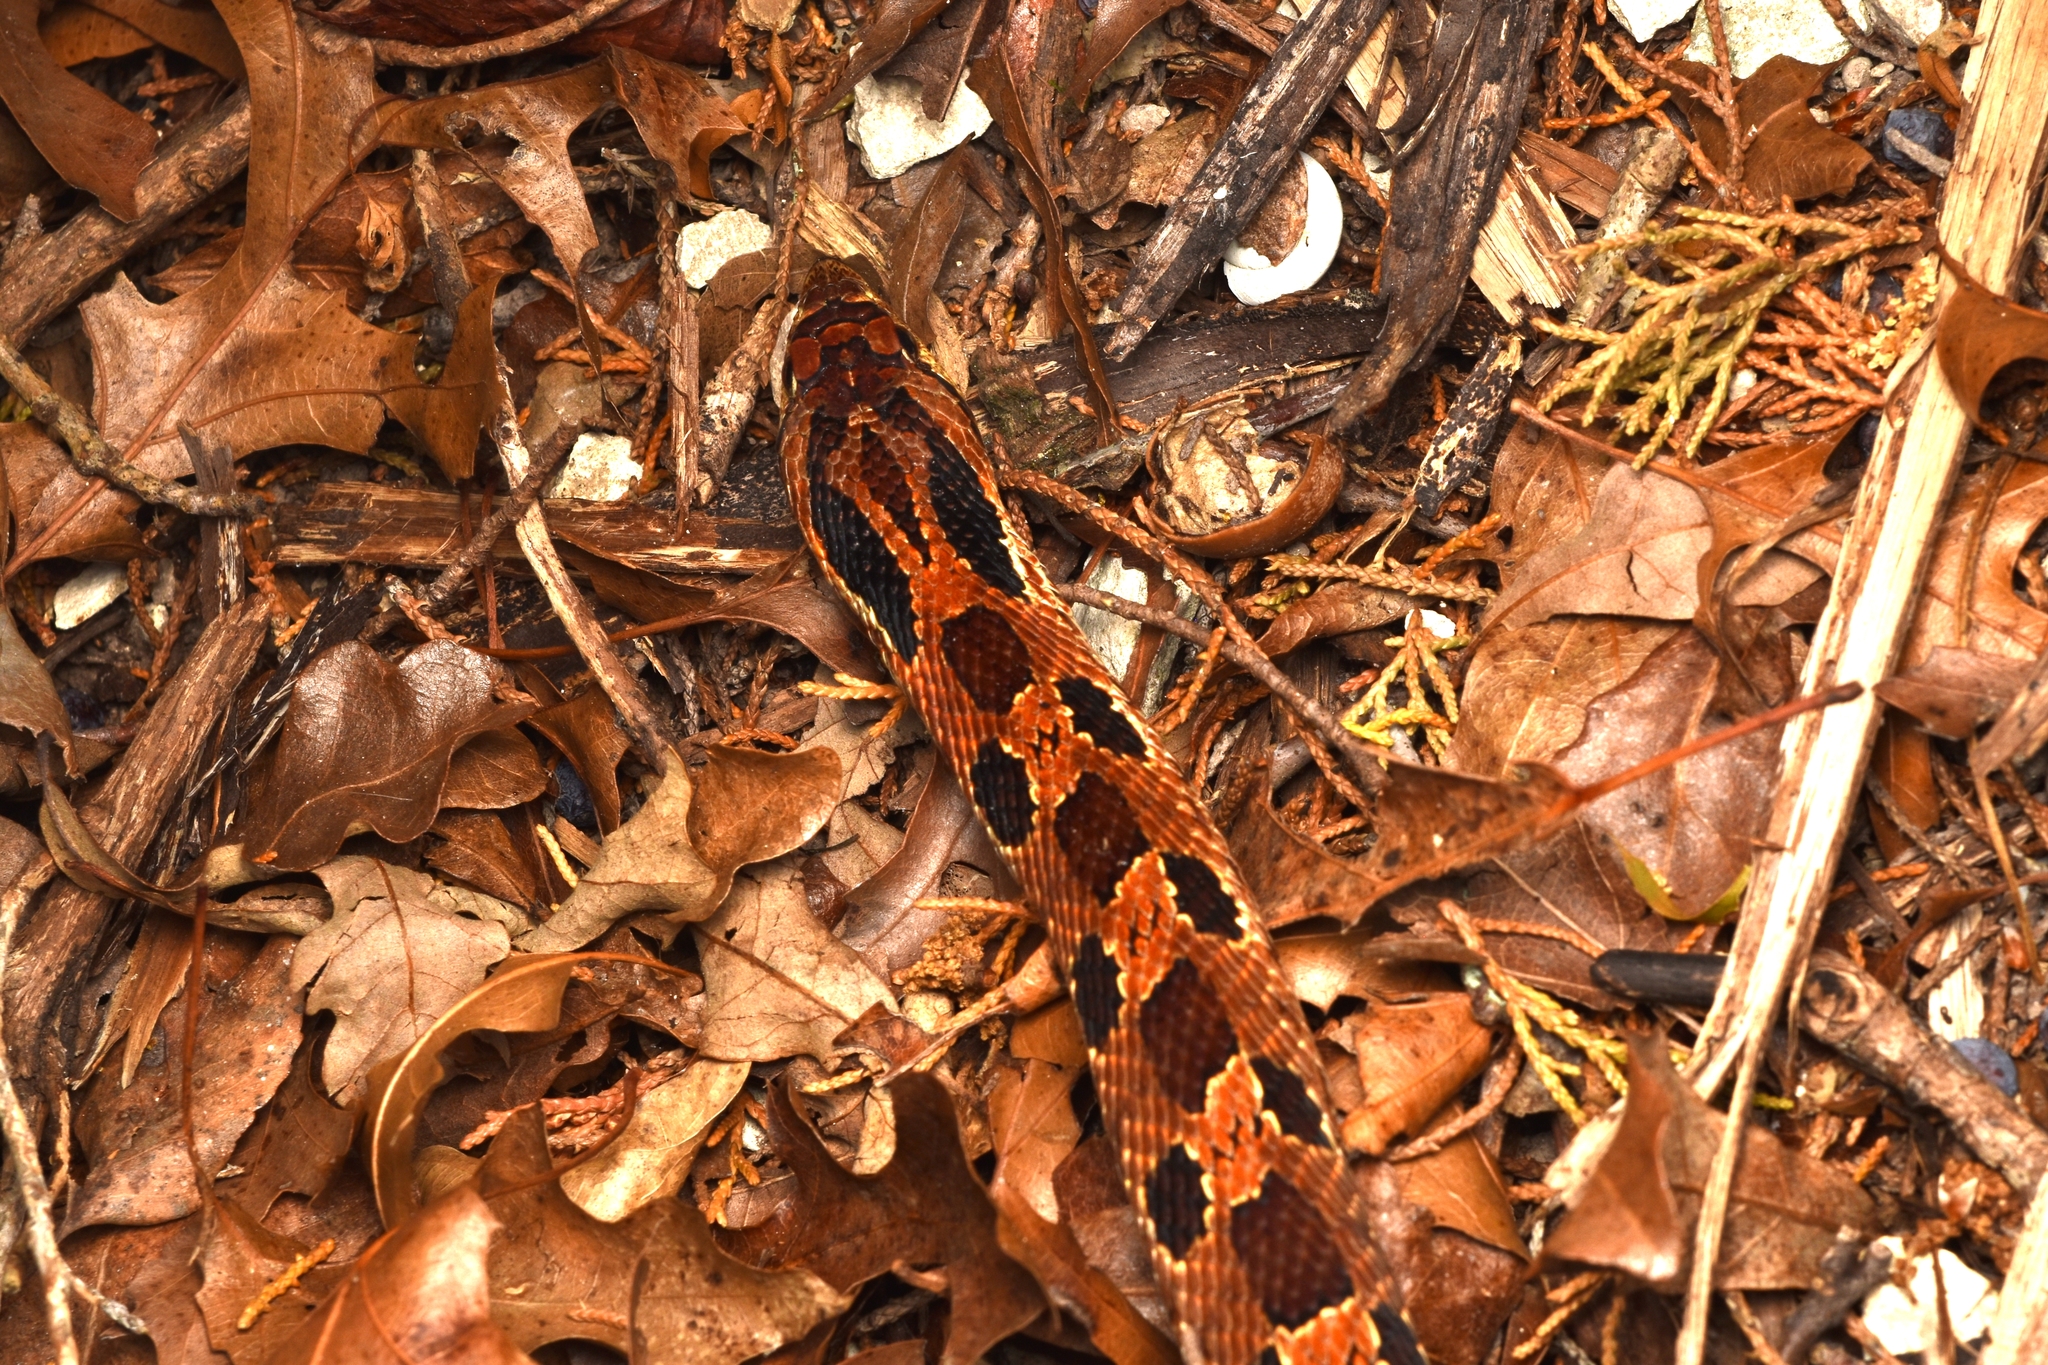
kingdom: Animalia
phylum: Chordata
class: Squamata
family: Colubridae
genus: Heterodon
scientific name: Heterodon platirhinos
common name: Eastern hognose snake
